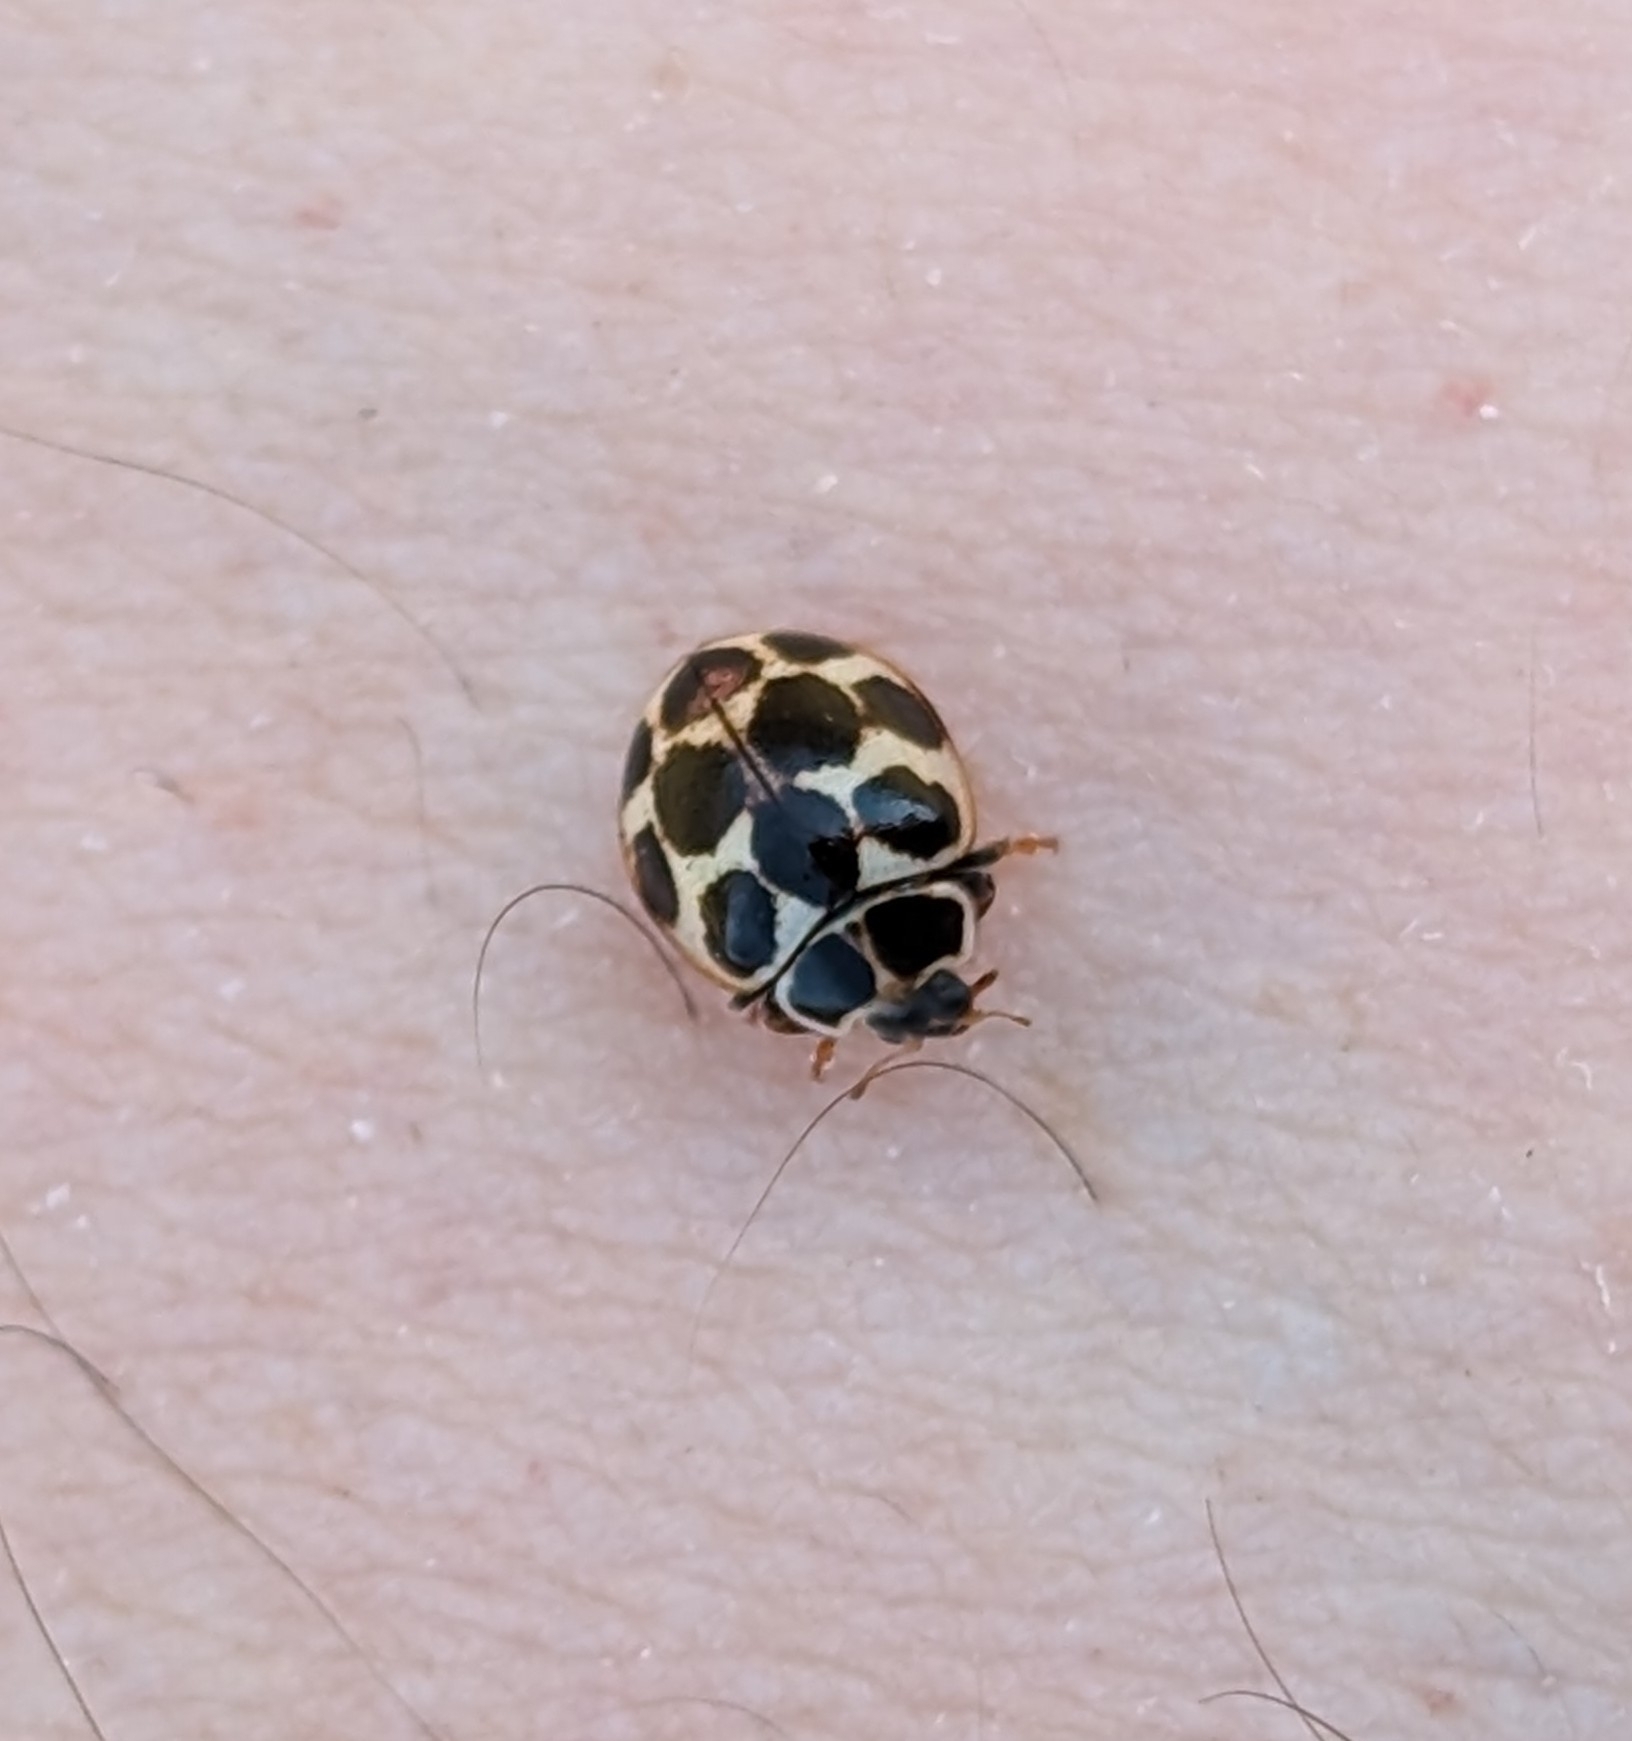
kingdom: Animalia
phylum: Arthropoda
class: Insecta
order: Coleoptera
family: Coccinellidae
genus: Calvia
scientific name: Calvia quatuordecimguttata
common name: Cream-spot ladybird
